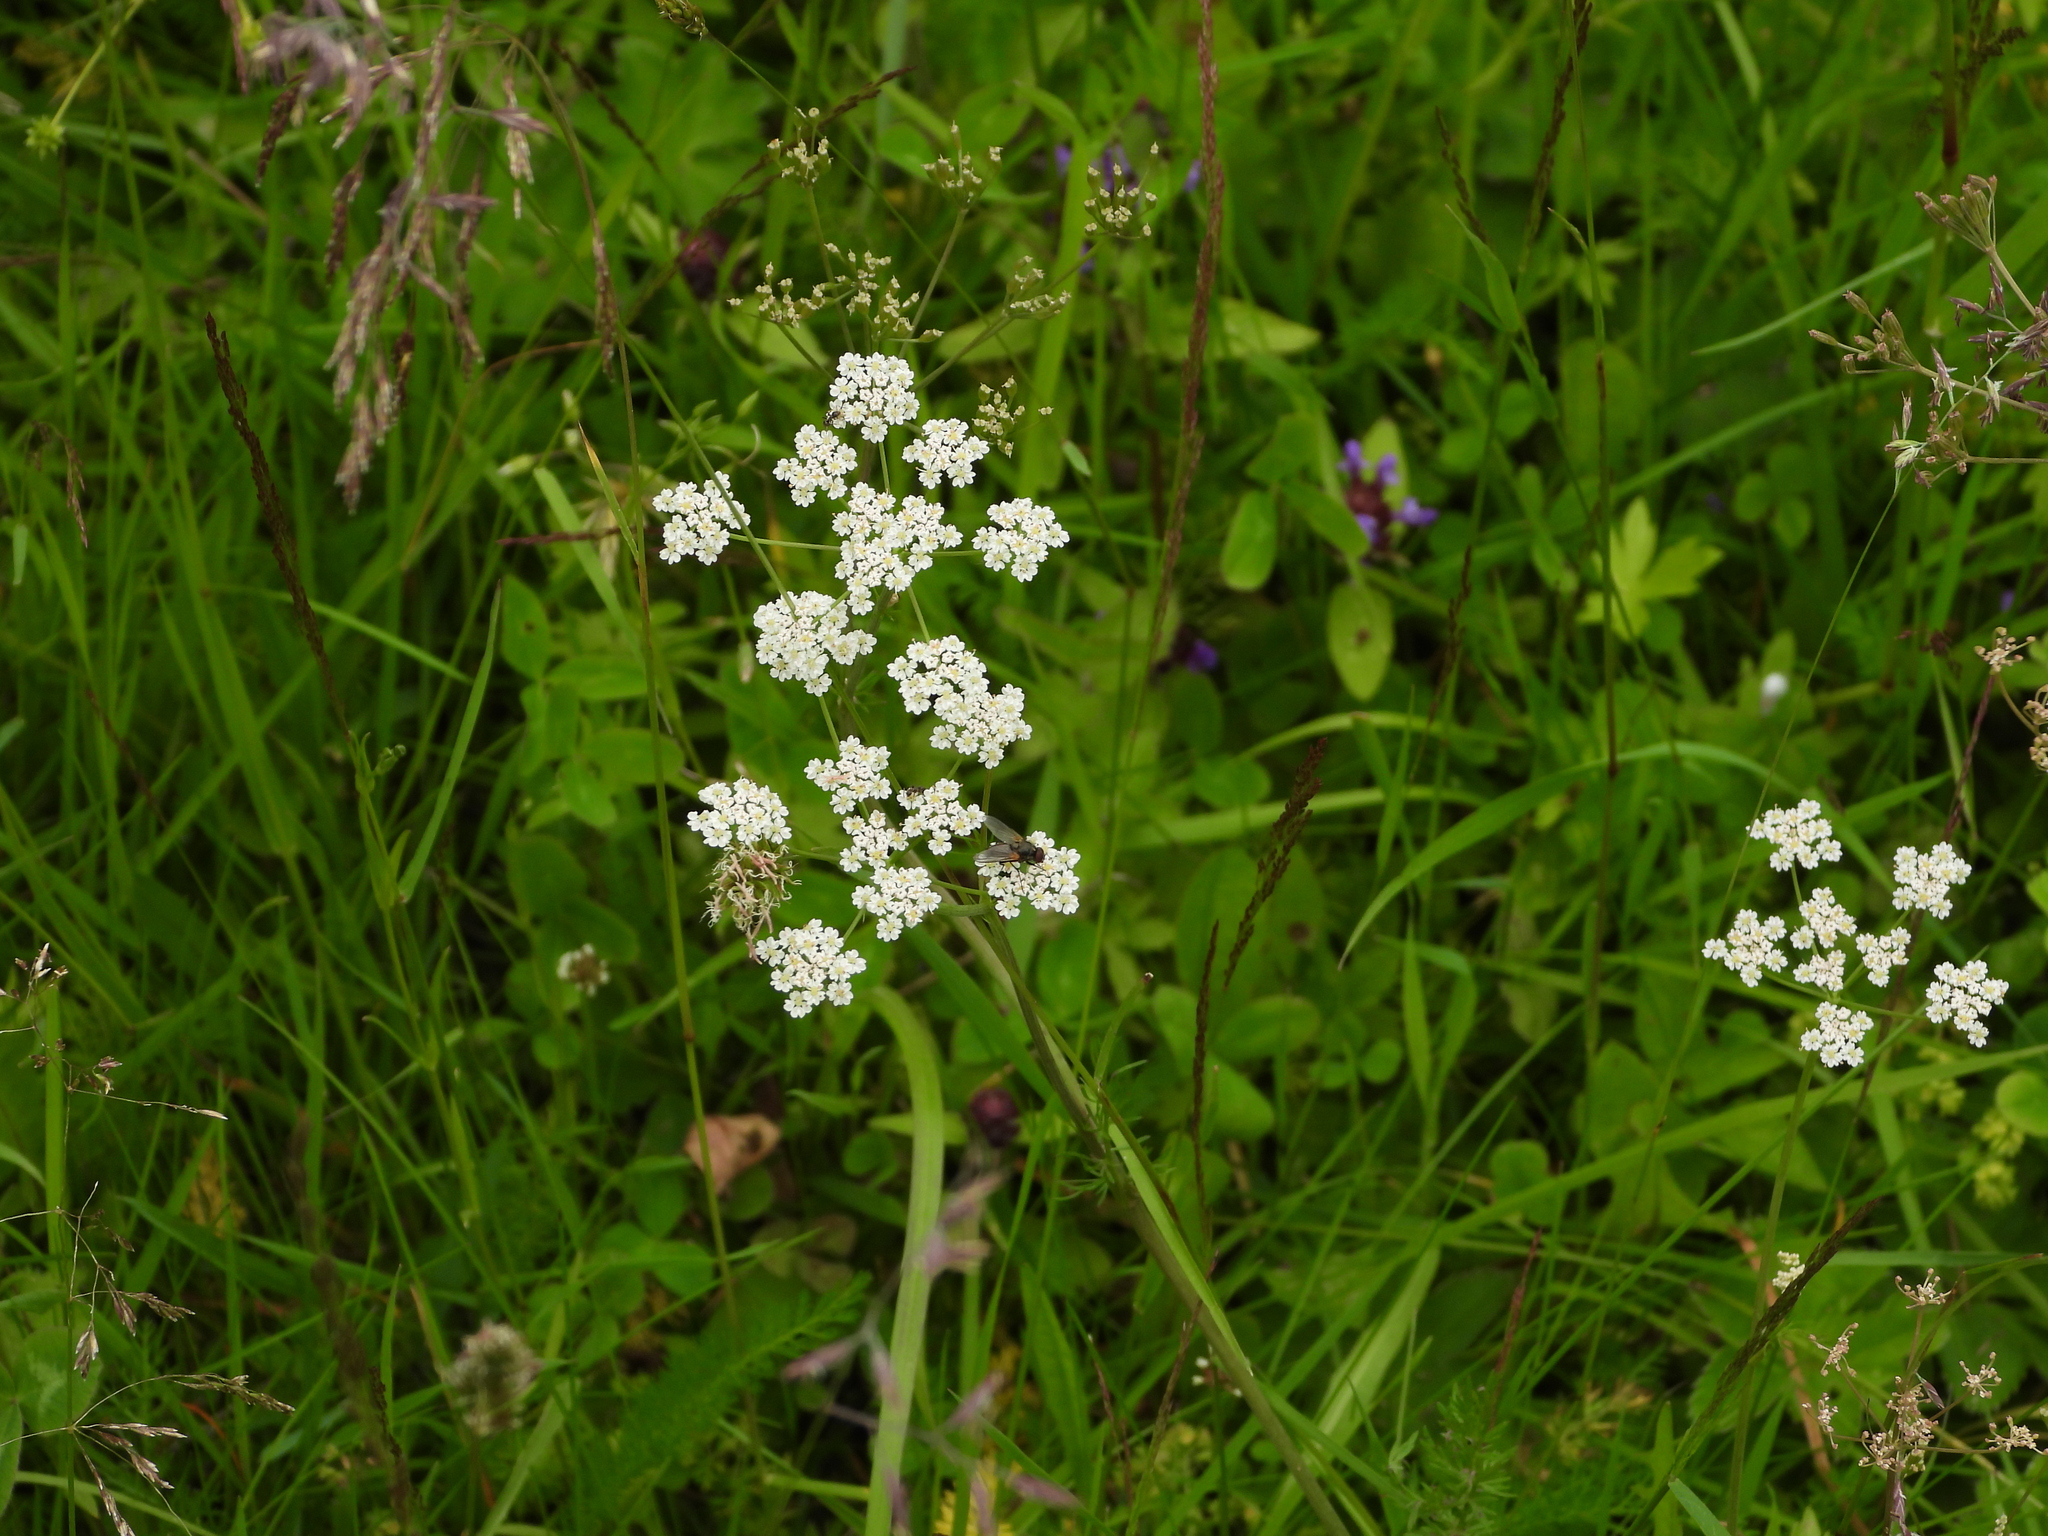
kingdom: Plantae
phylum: Tracheophyta
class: Magnoliopsida
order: Apiales
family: Apiaceae
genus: Carum
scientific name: Carum carvi
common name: Caraway
